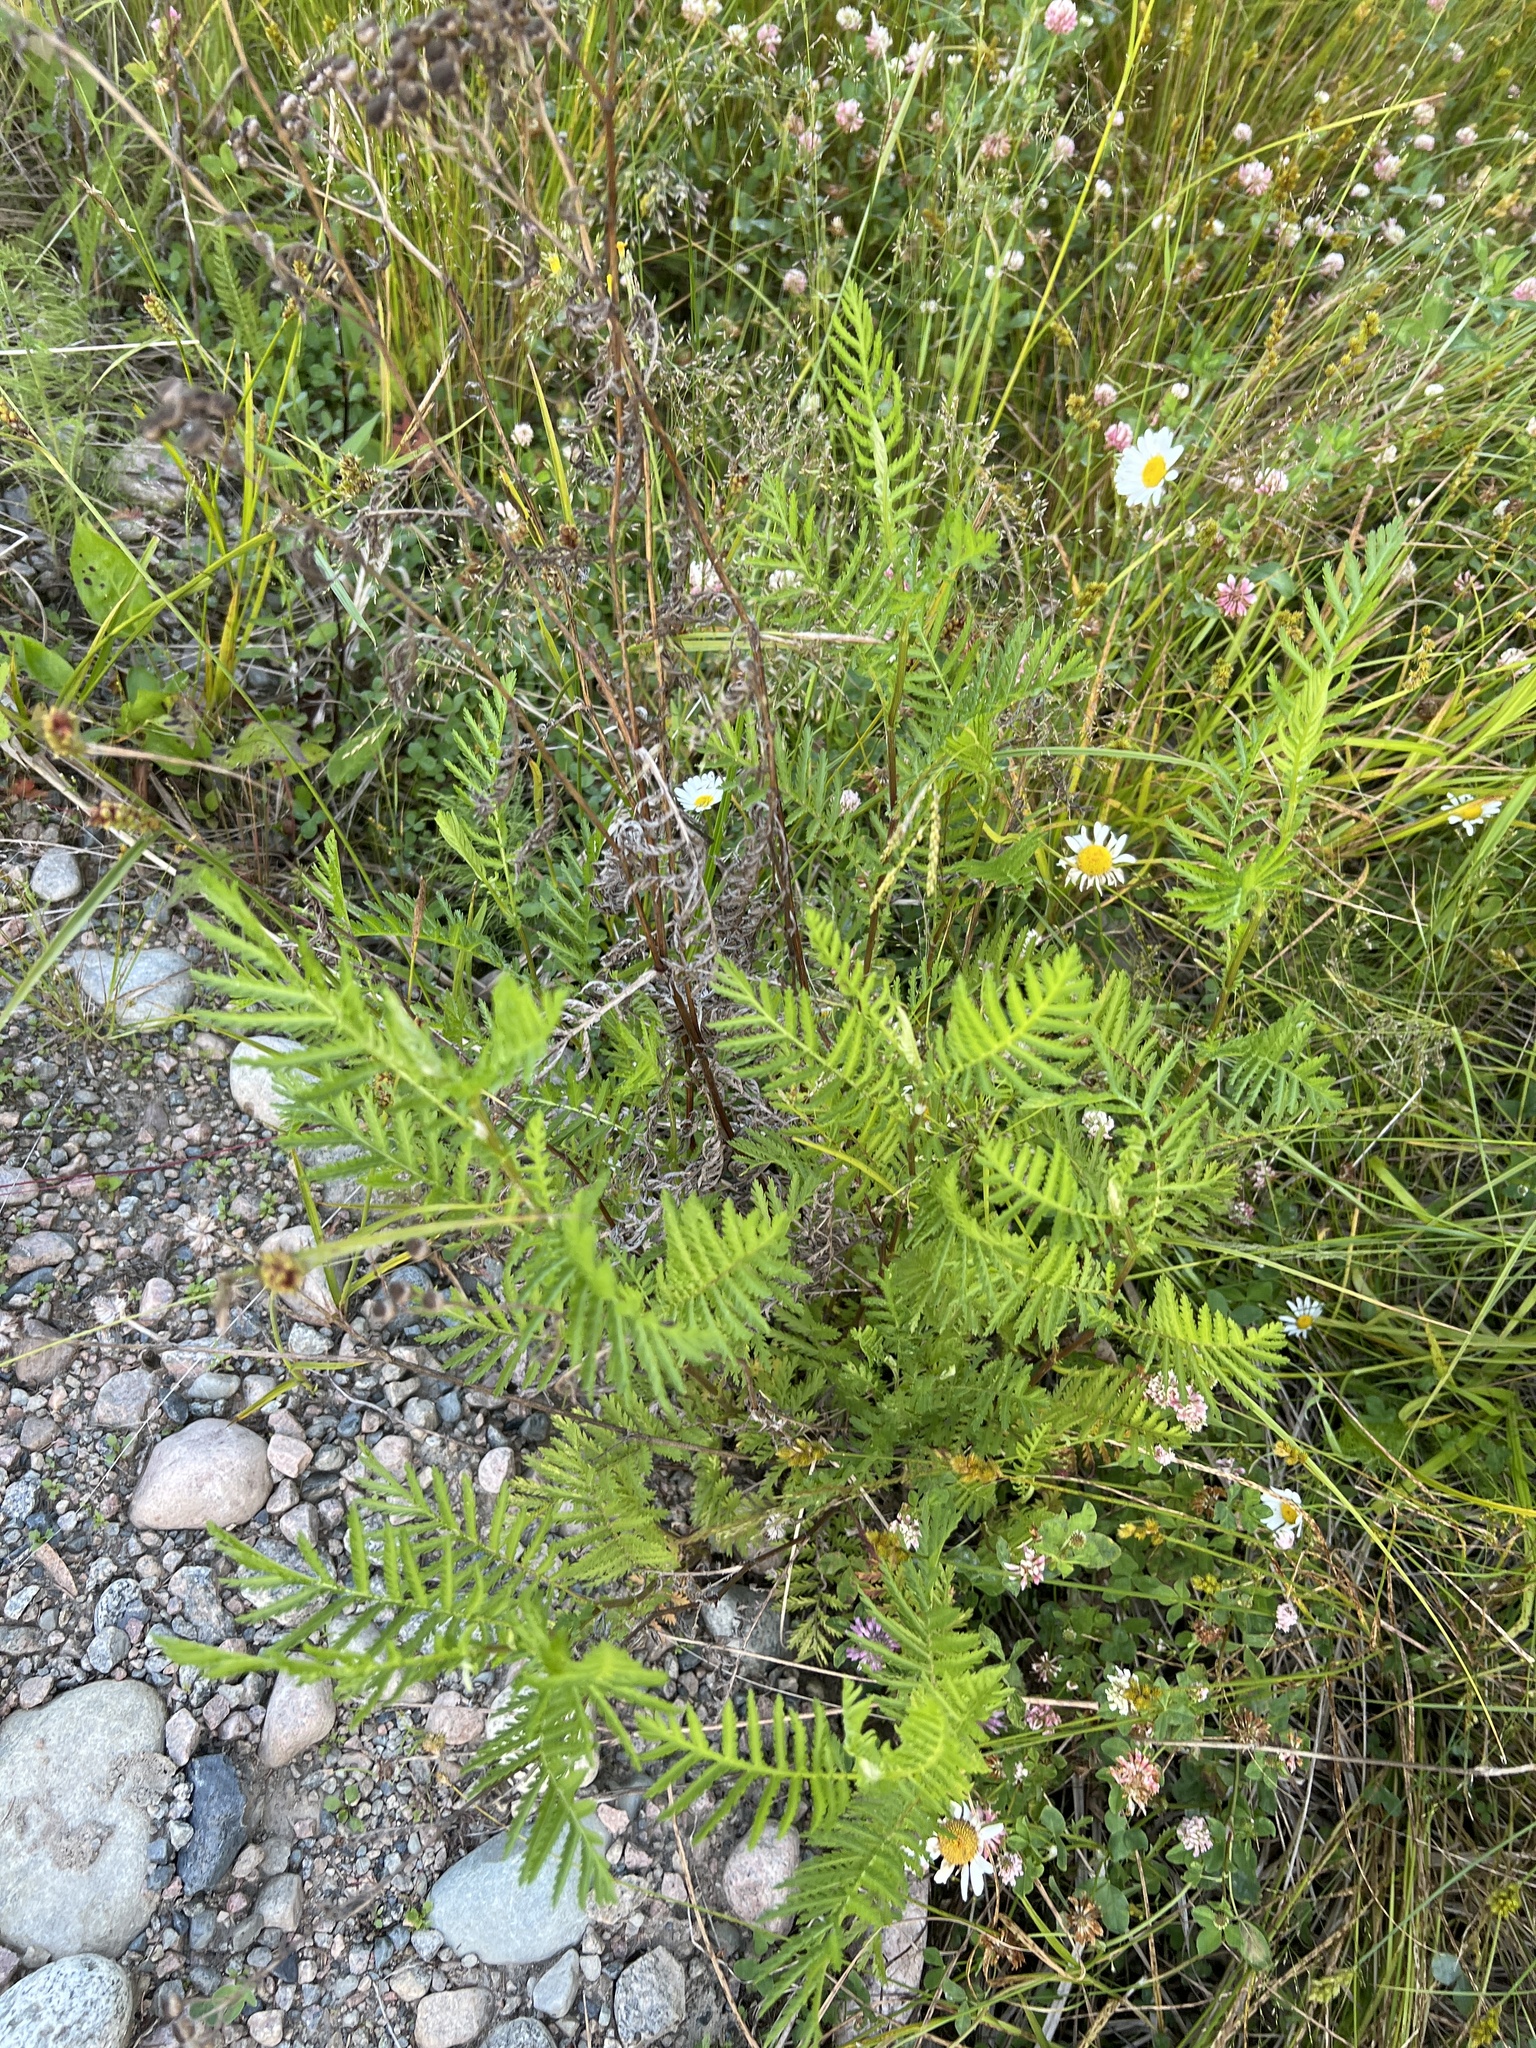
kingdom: Plantae
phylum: Tracheophyta
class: Magnoliopsida
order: Asterales
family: Asteraceae
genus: Tanacetum
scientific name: Tanacetum vulgare
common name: Common tansy
